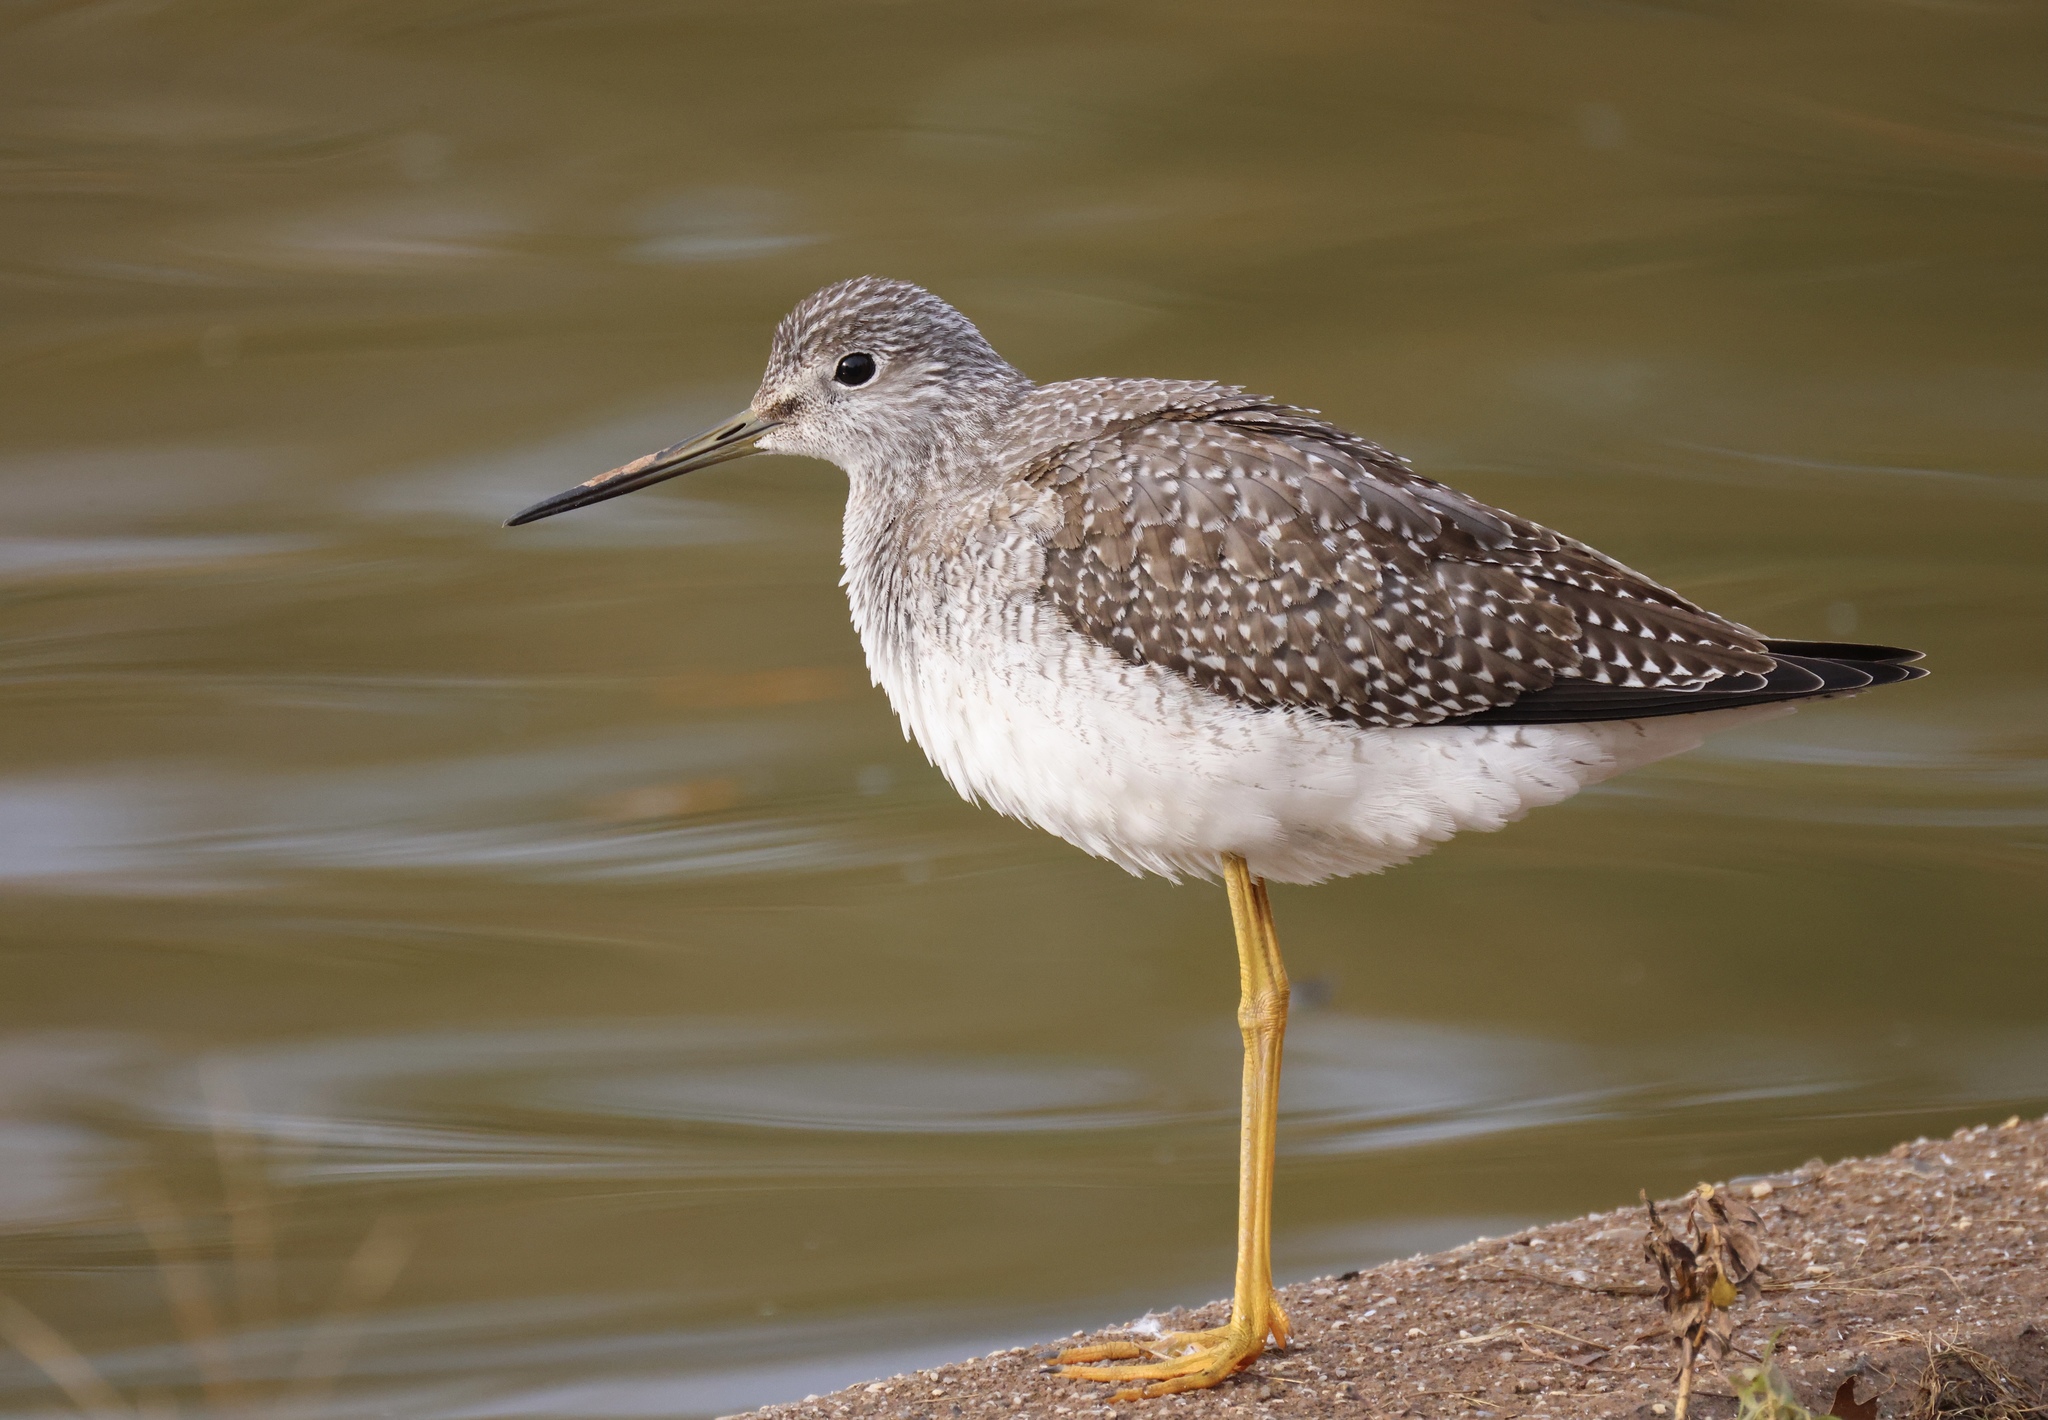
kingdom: Animalia
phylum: Chordata
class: Aves
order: Charadriiformes
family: Scolopacidae
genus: Tringa
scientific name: Tringa melanoleuca
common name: Greater yellowlegs
